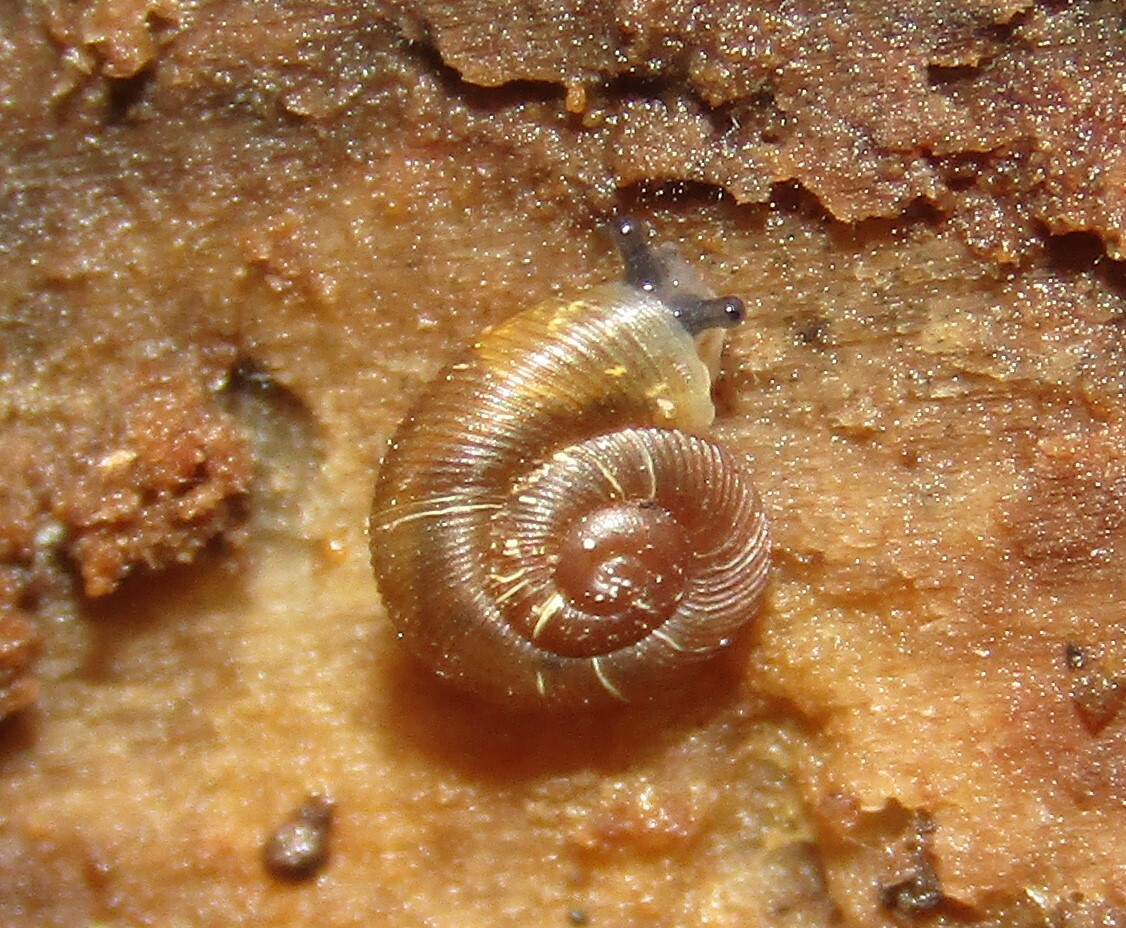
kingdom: Animalia
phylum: Mollusca
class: Gastropoda
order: Stylommatophora
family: Discidae
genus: Discus
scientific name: Discus ruderatus
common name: Brown disc snail
